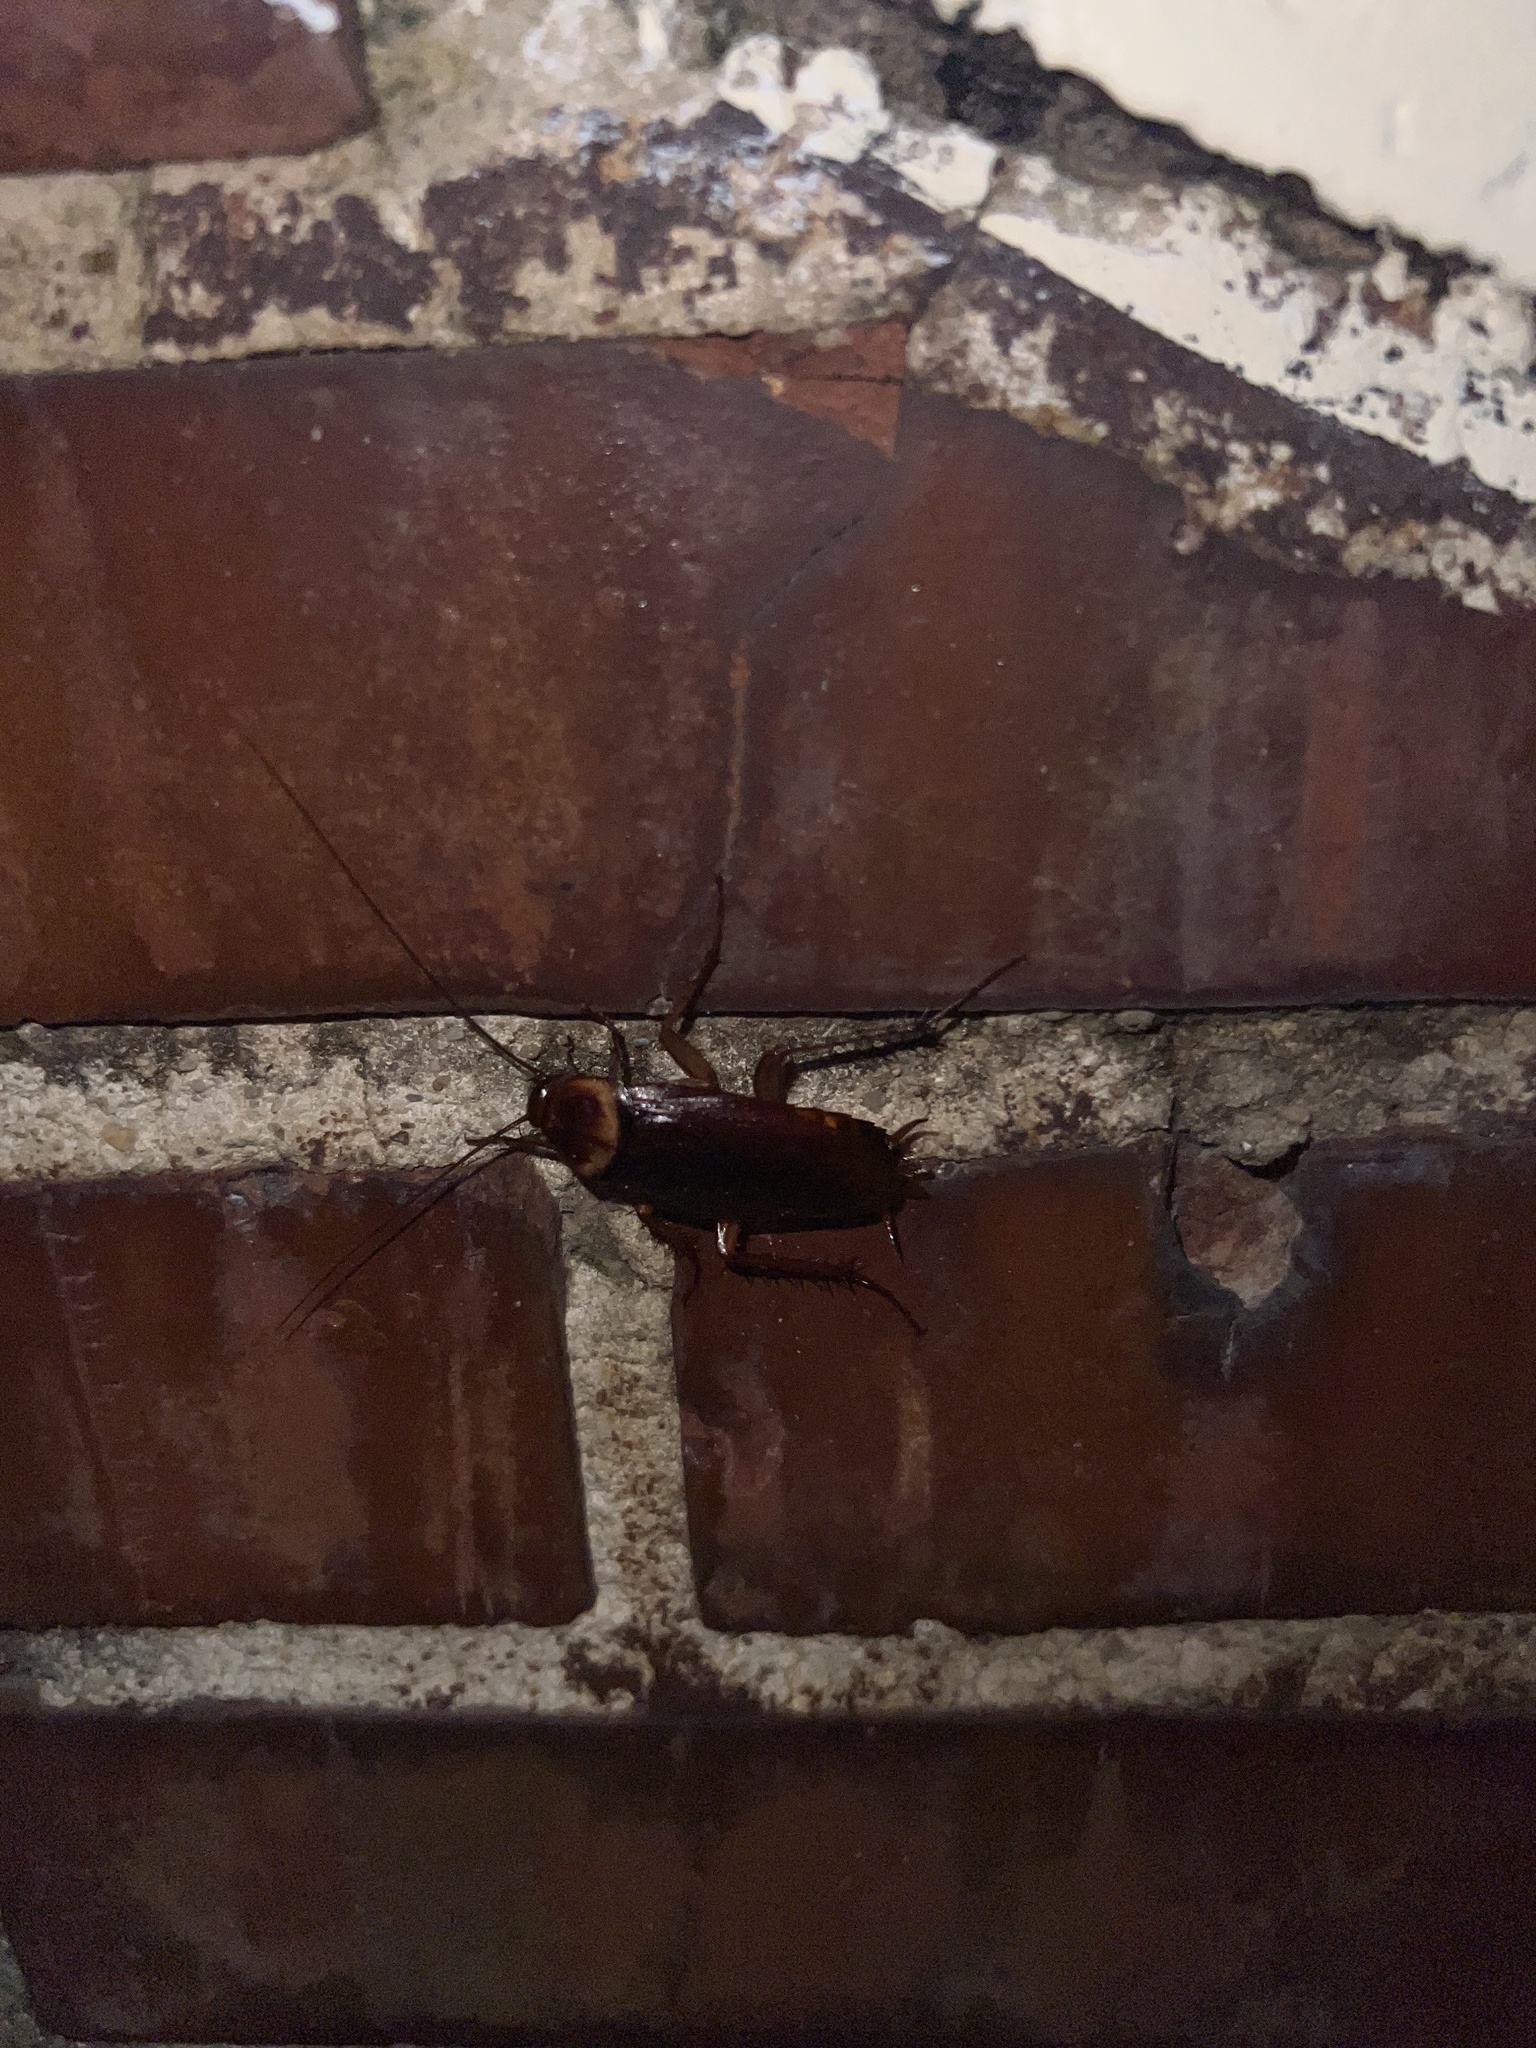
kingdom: Animalia
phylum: Arthropoda
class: Insecta
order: Blattodea
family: Blattidae
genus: Periplaneta
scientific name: Periplaneta americana
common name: American cockroach
